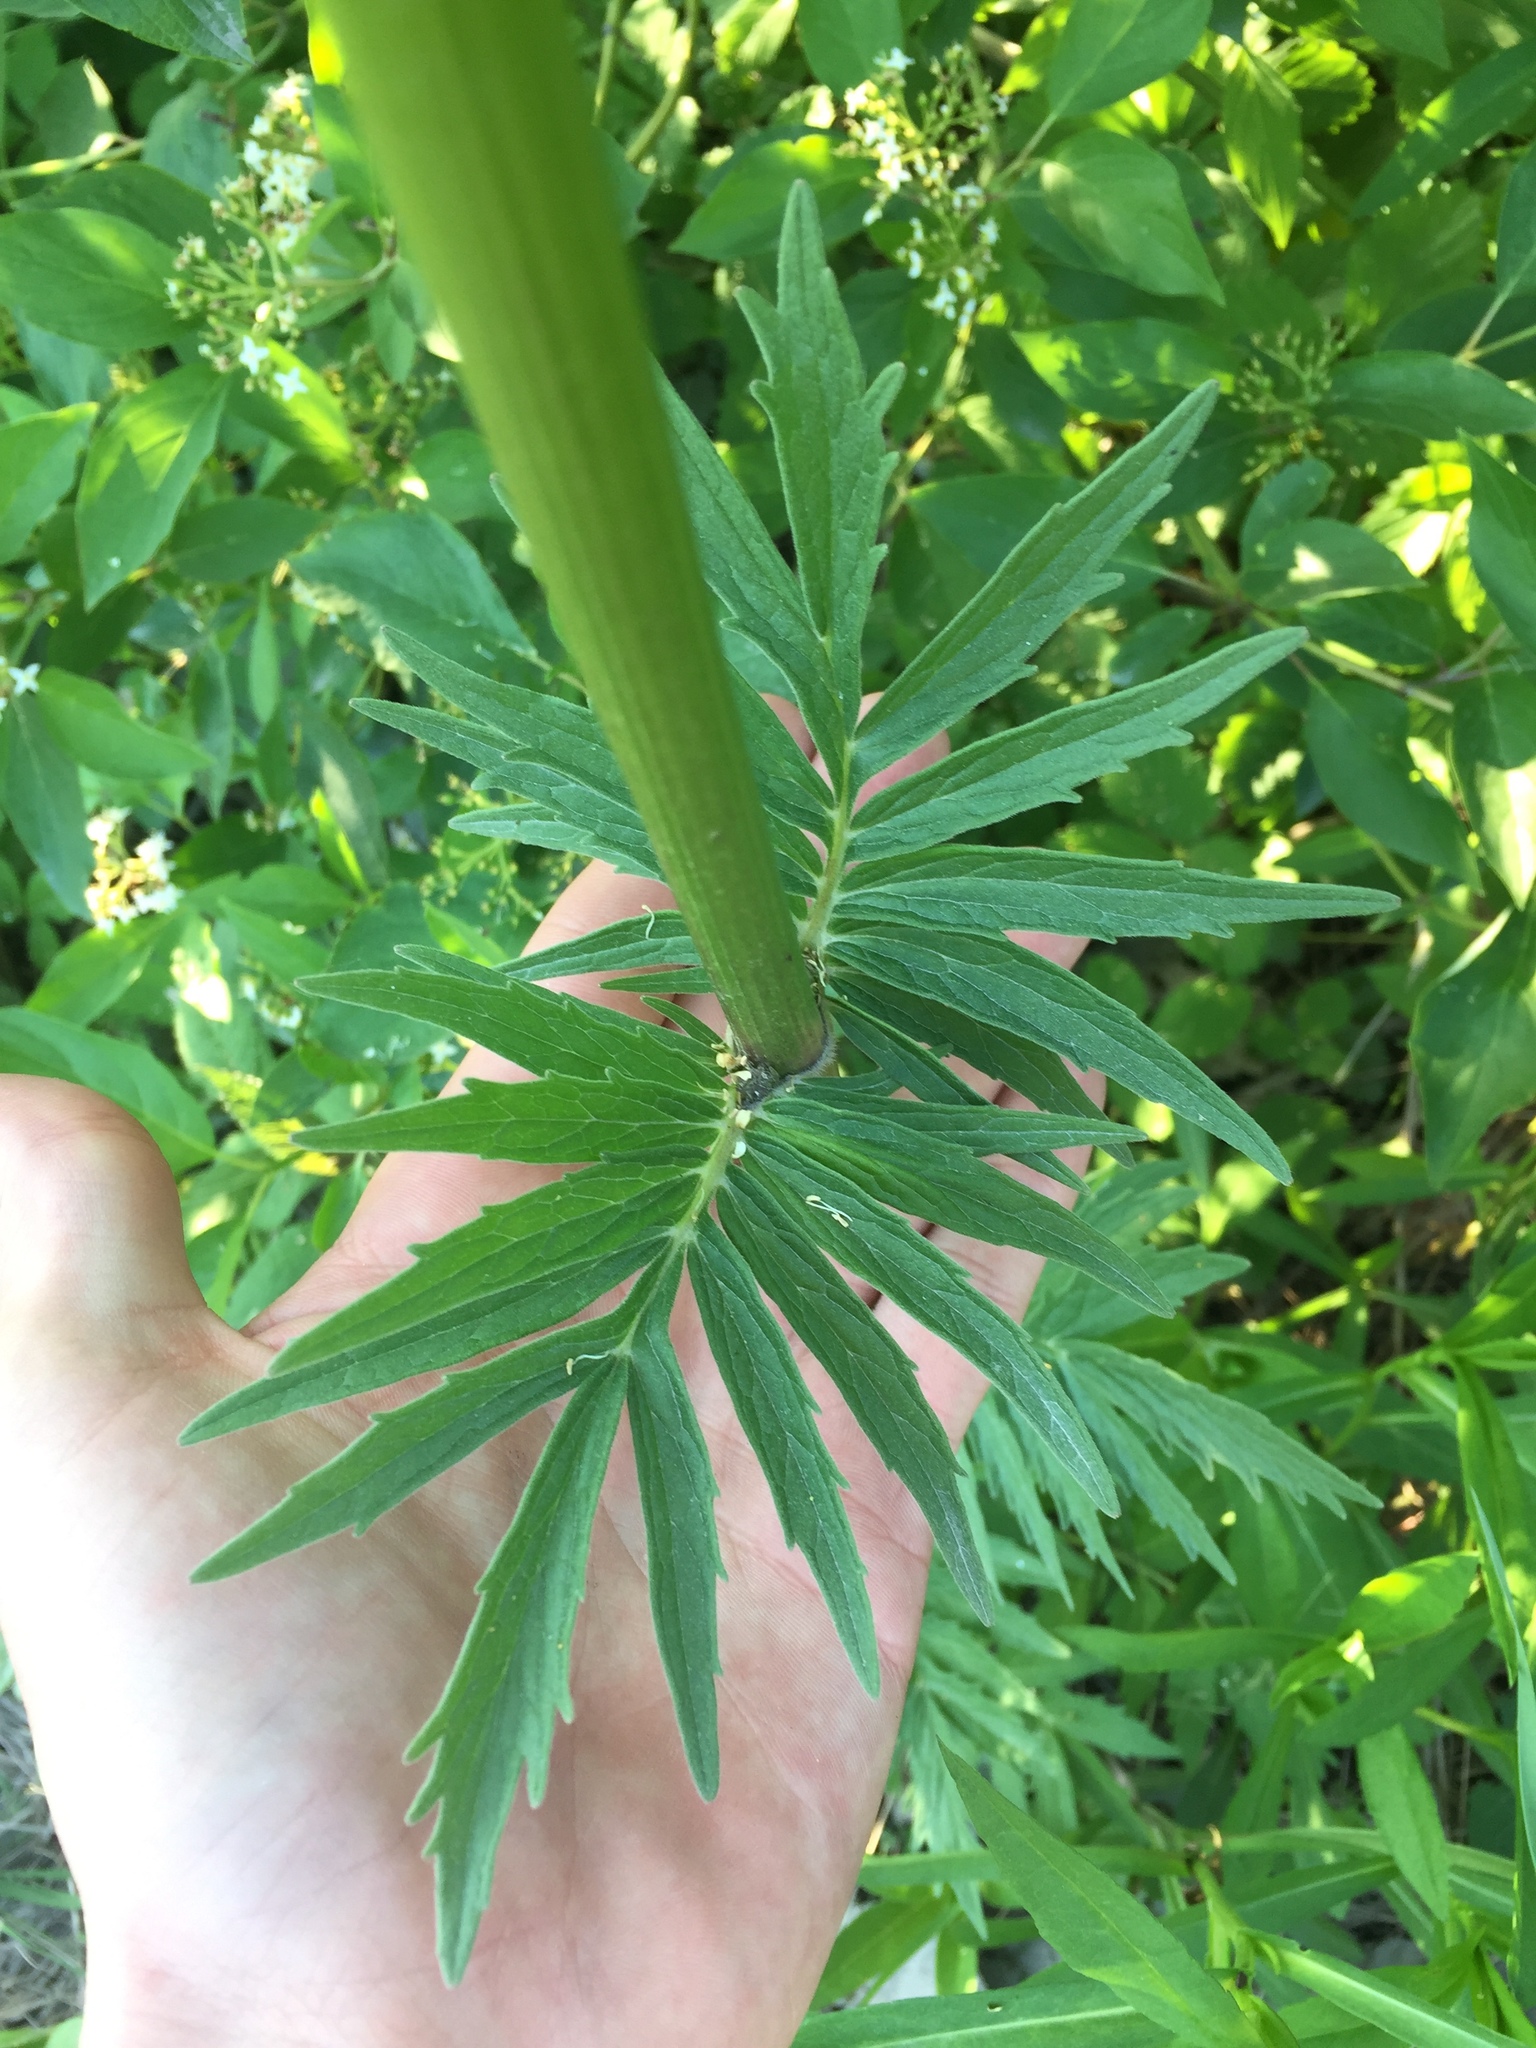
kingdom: Plantae
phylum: Tracheophyta
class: Magnoliopsida
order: Dipsacales
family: Caprifoliaceae
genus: Valeriana
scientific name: Valeriana officinalis
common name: Common valerian
